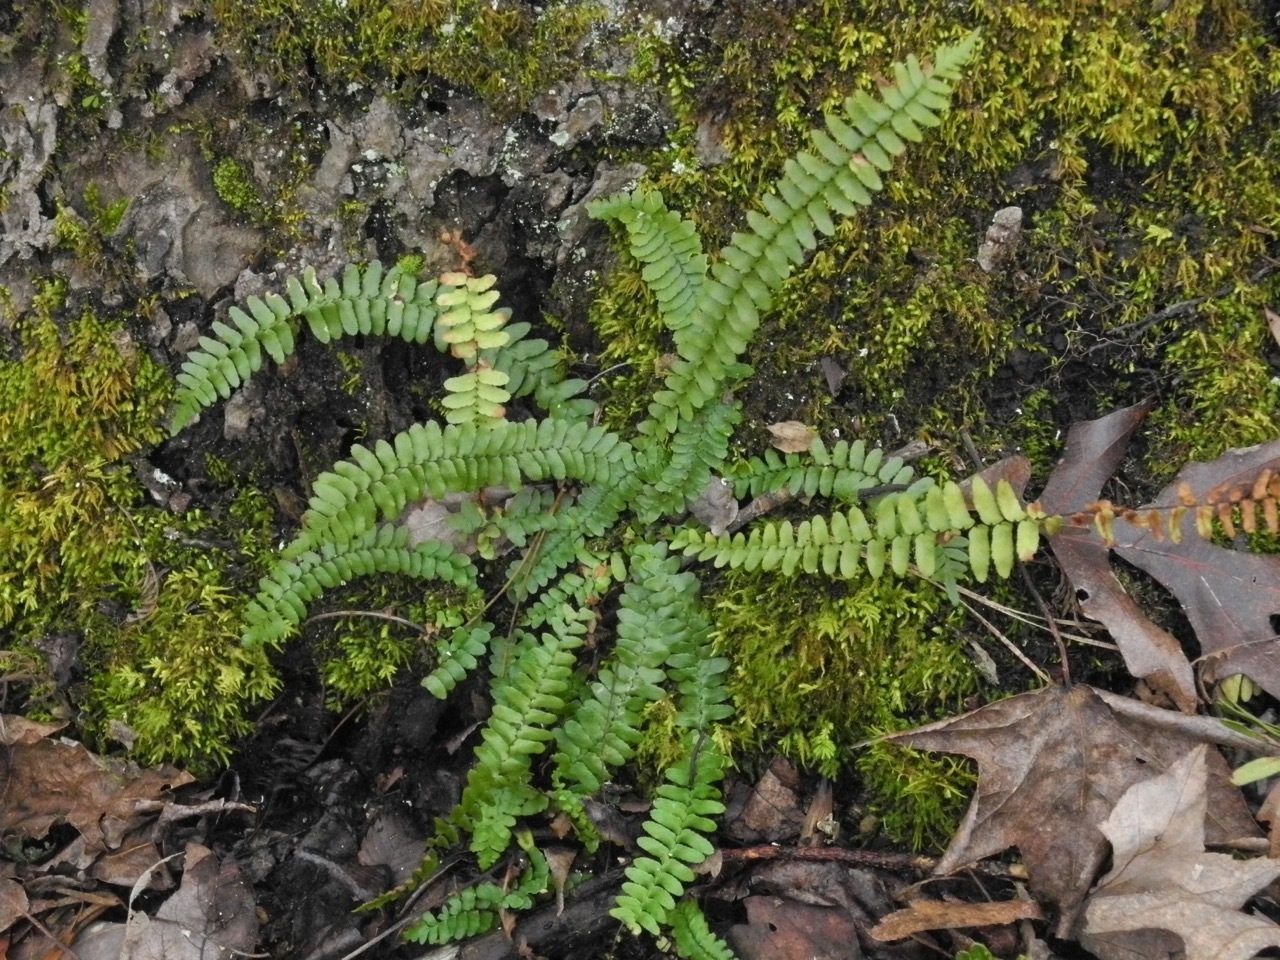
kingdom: Plantae
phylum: Tracheophyta
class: Polypodiopsida
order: Polypodiales
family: Aspleniaceae
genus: Asplenium
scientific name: Asplenium platyneuron
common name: Ebony spleenwort
